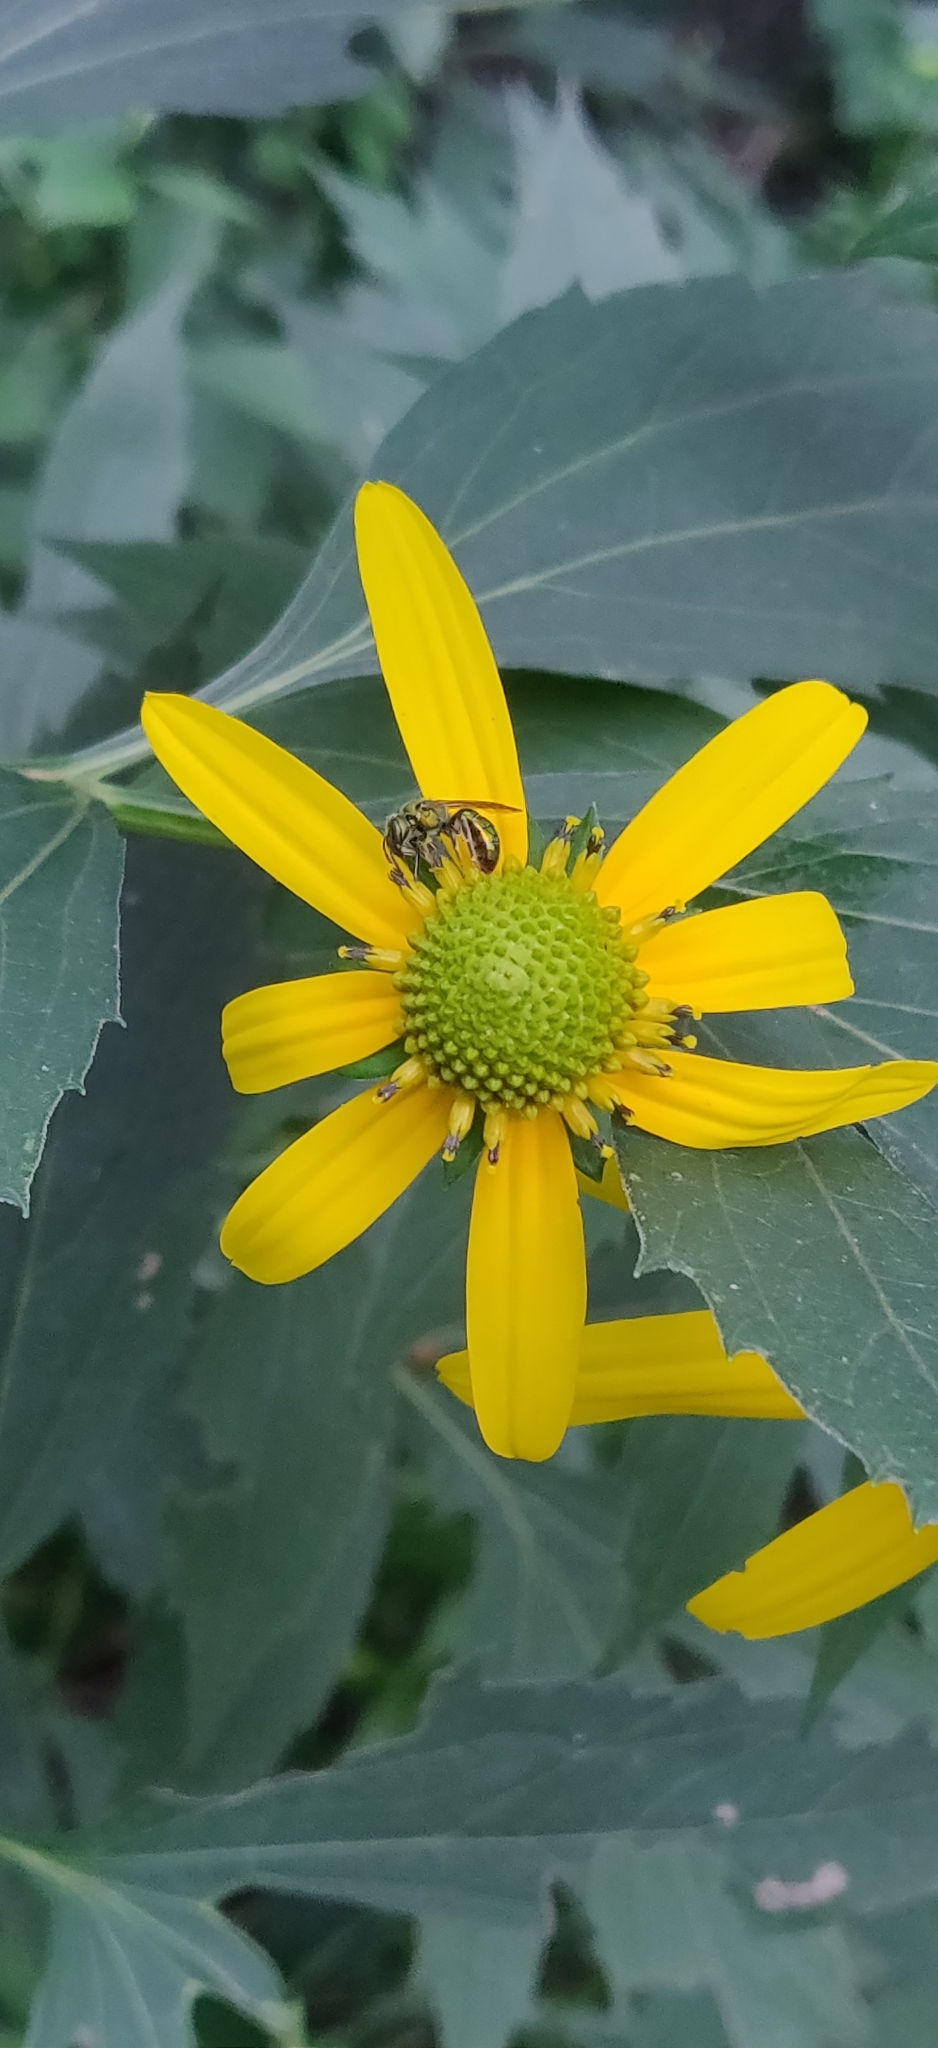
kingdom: Plantae
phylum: Tracheophyta
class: Magnoliopsida
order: Asterales
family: Asteraceae
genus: Rudbeckia
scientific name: Rudbeckia laciniata
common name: Coneflower
